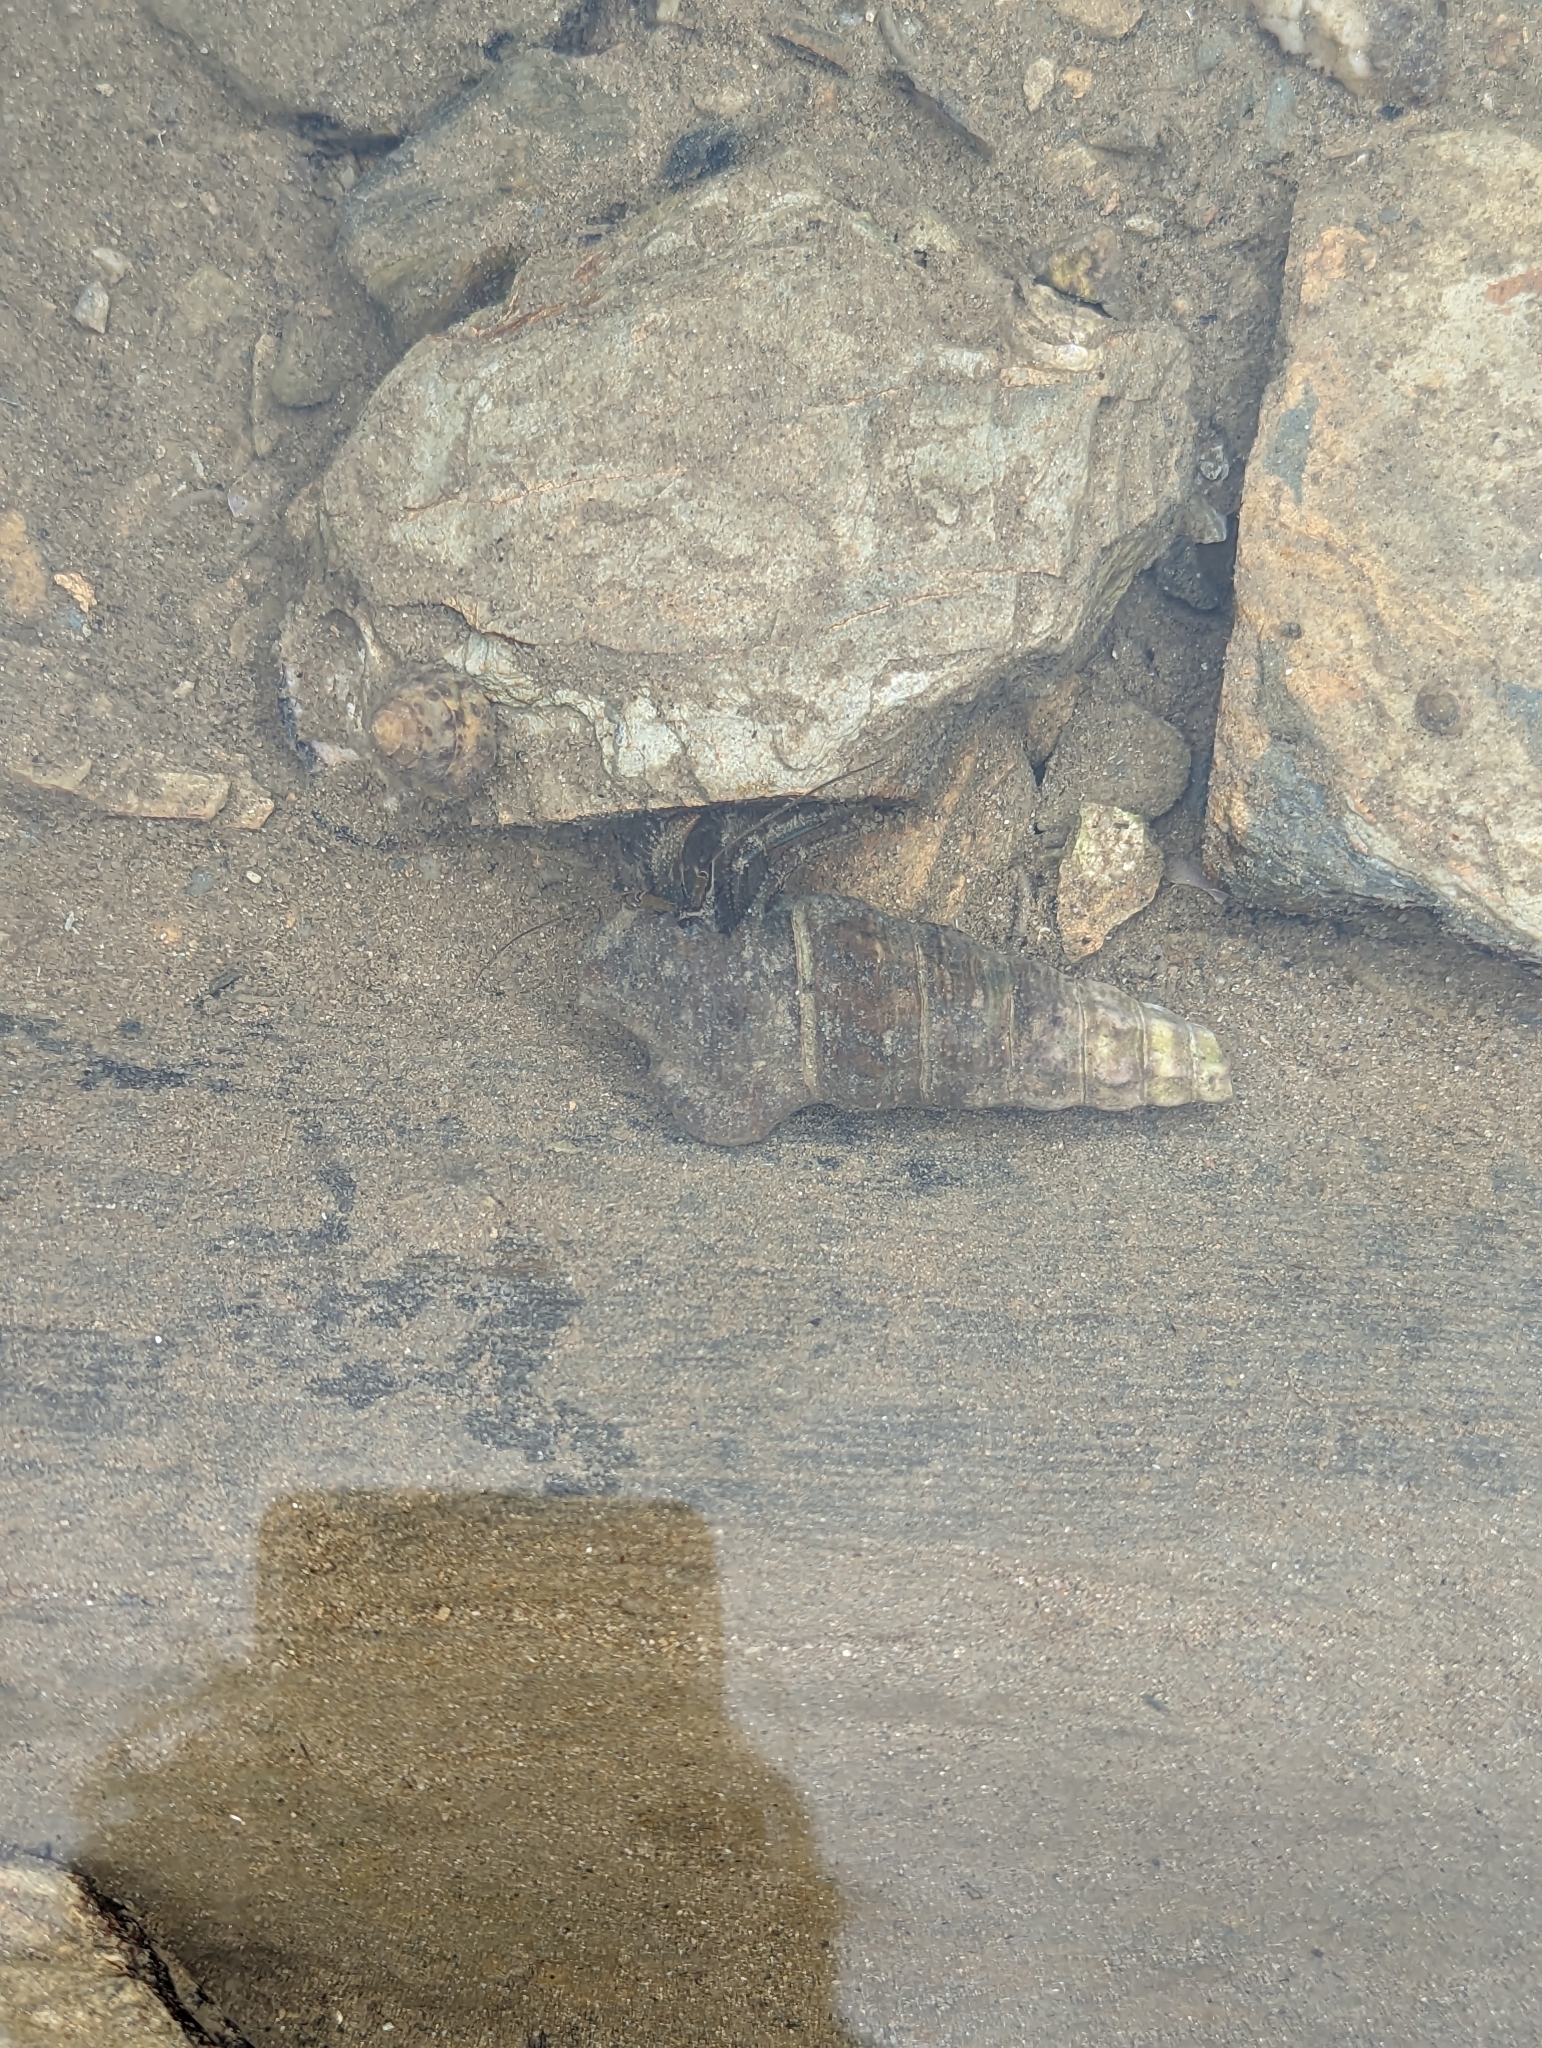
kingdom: Animalia
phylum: Mollusca
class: Gastropoda
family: Batillariidae
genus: Pyrazus
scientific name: Pyrazus ebeninus
